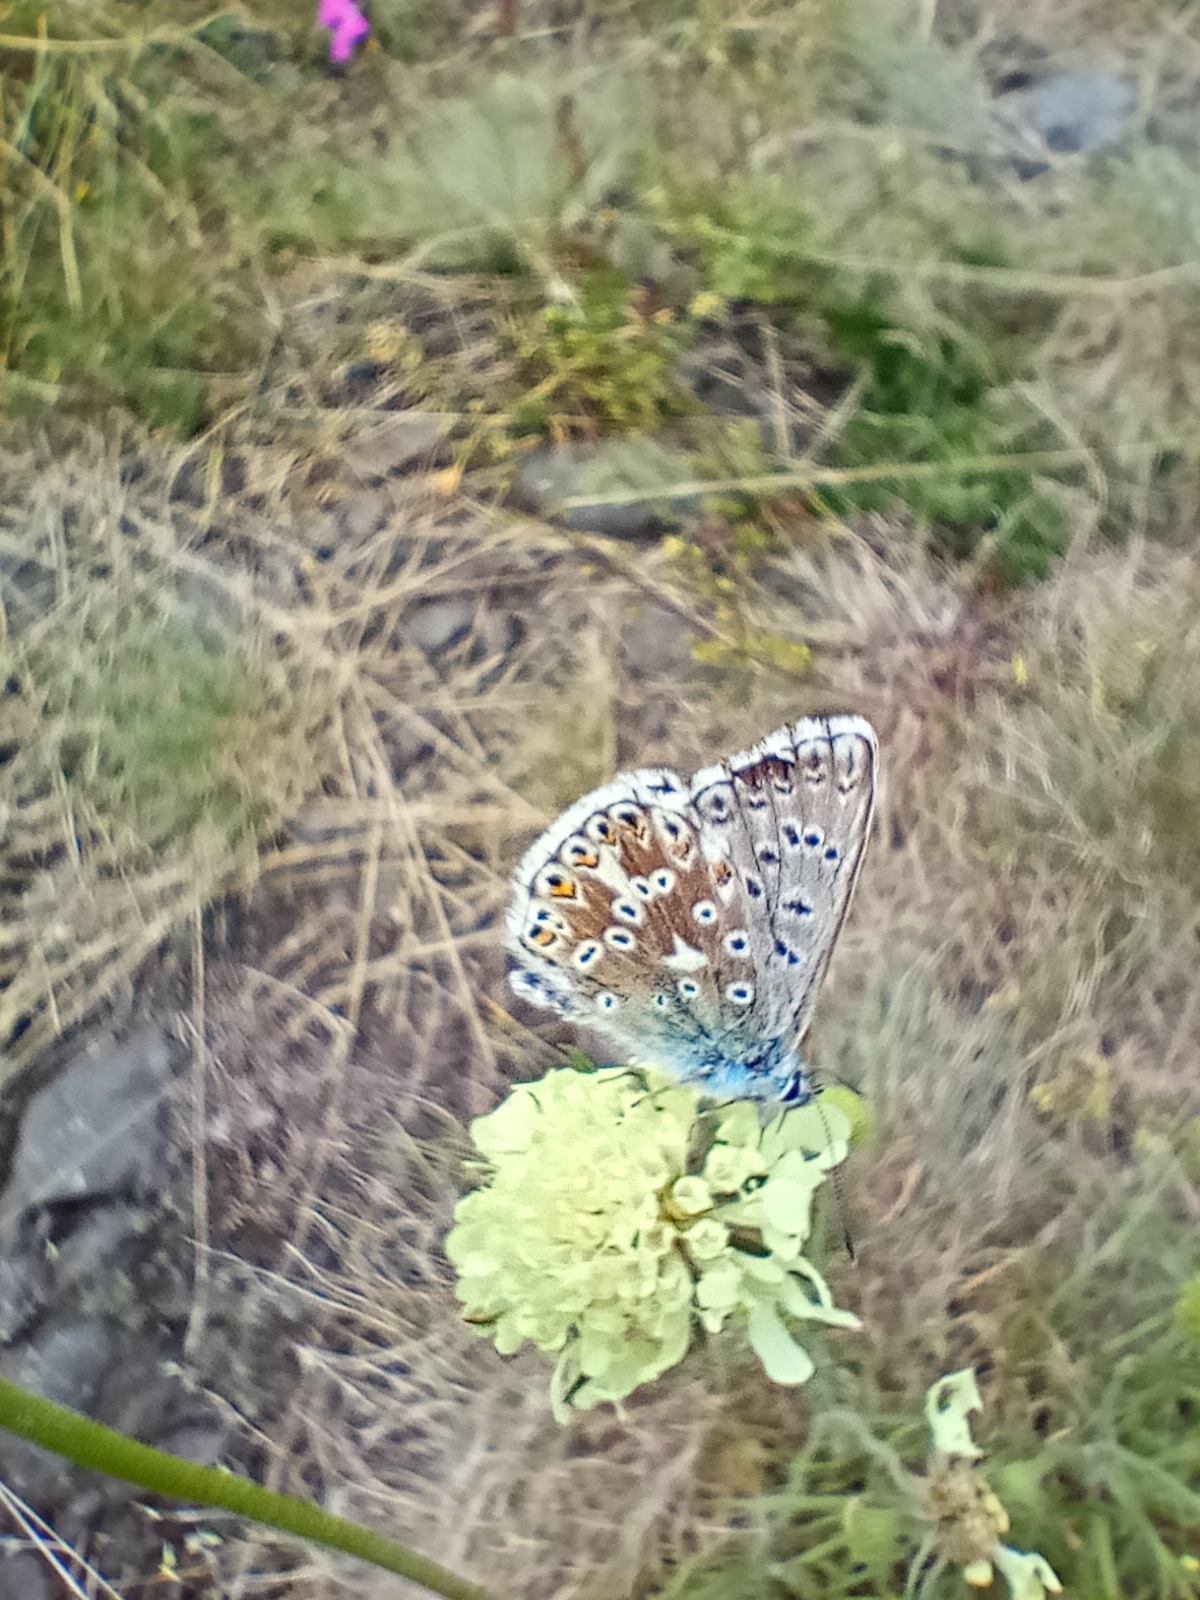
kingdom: Animalia
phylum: Arthropoda
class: Insecta
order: Lepidoptera
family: Lycaenidae
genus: Lysandra
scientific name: Lysandra coridon
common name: Chalkhill blue
